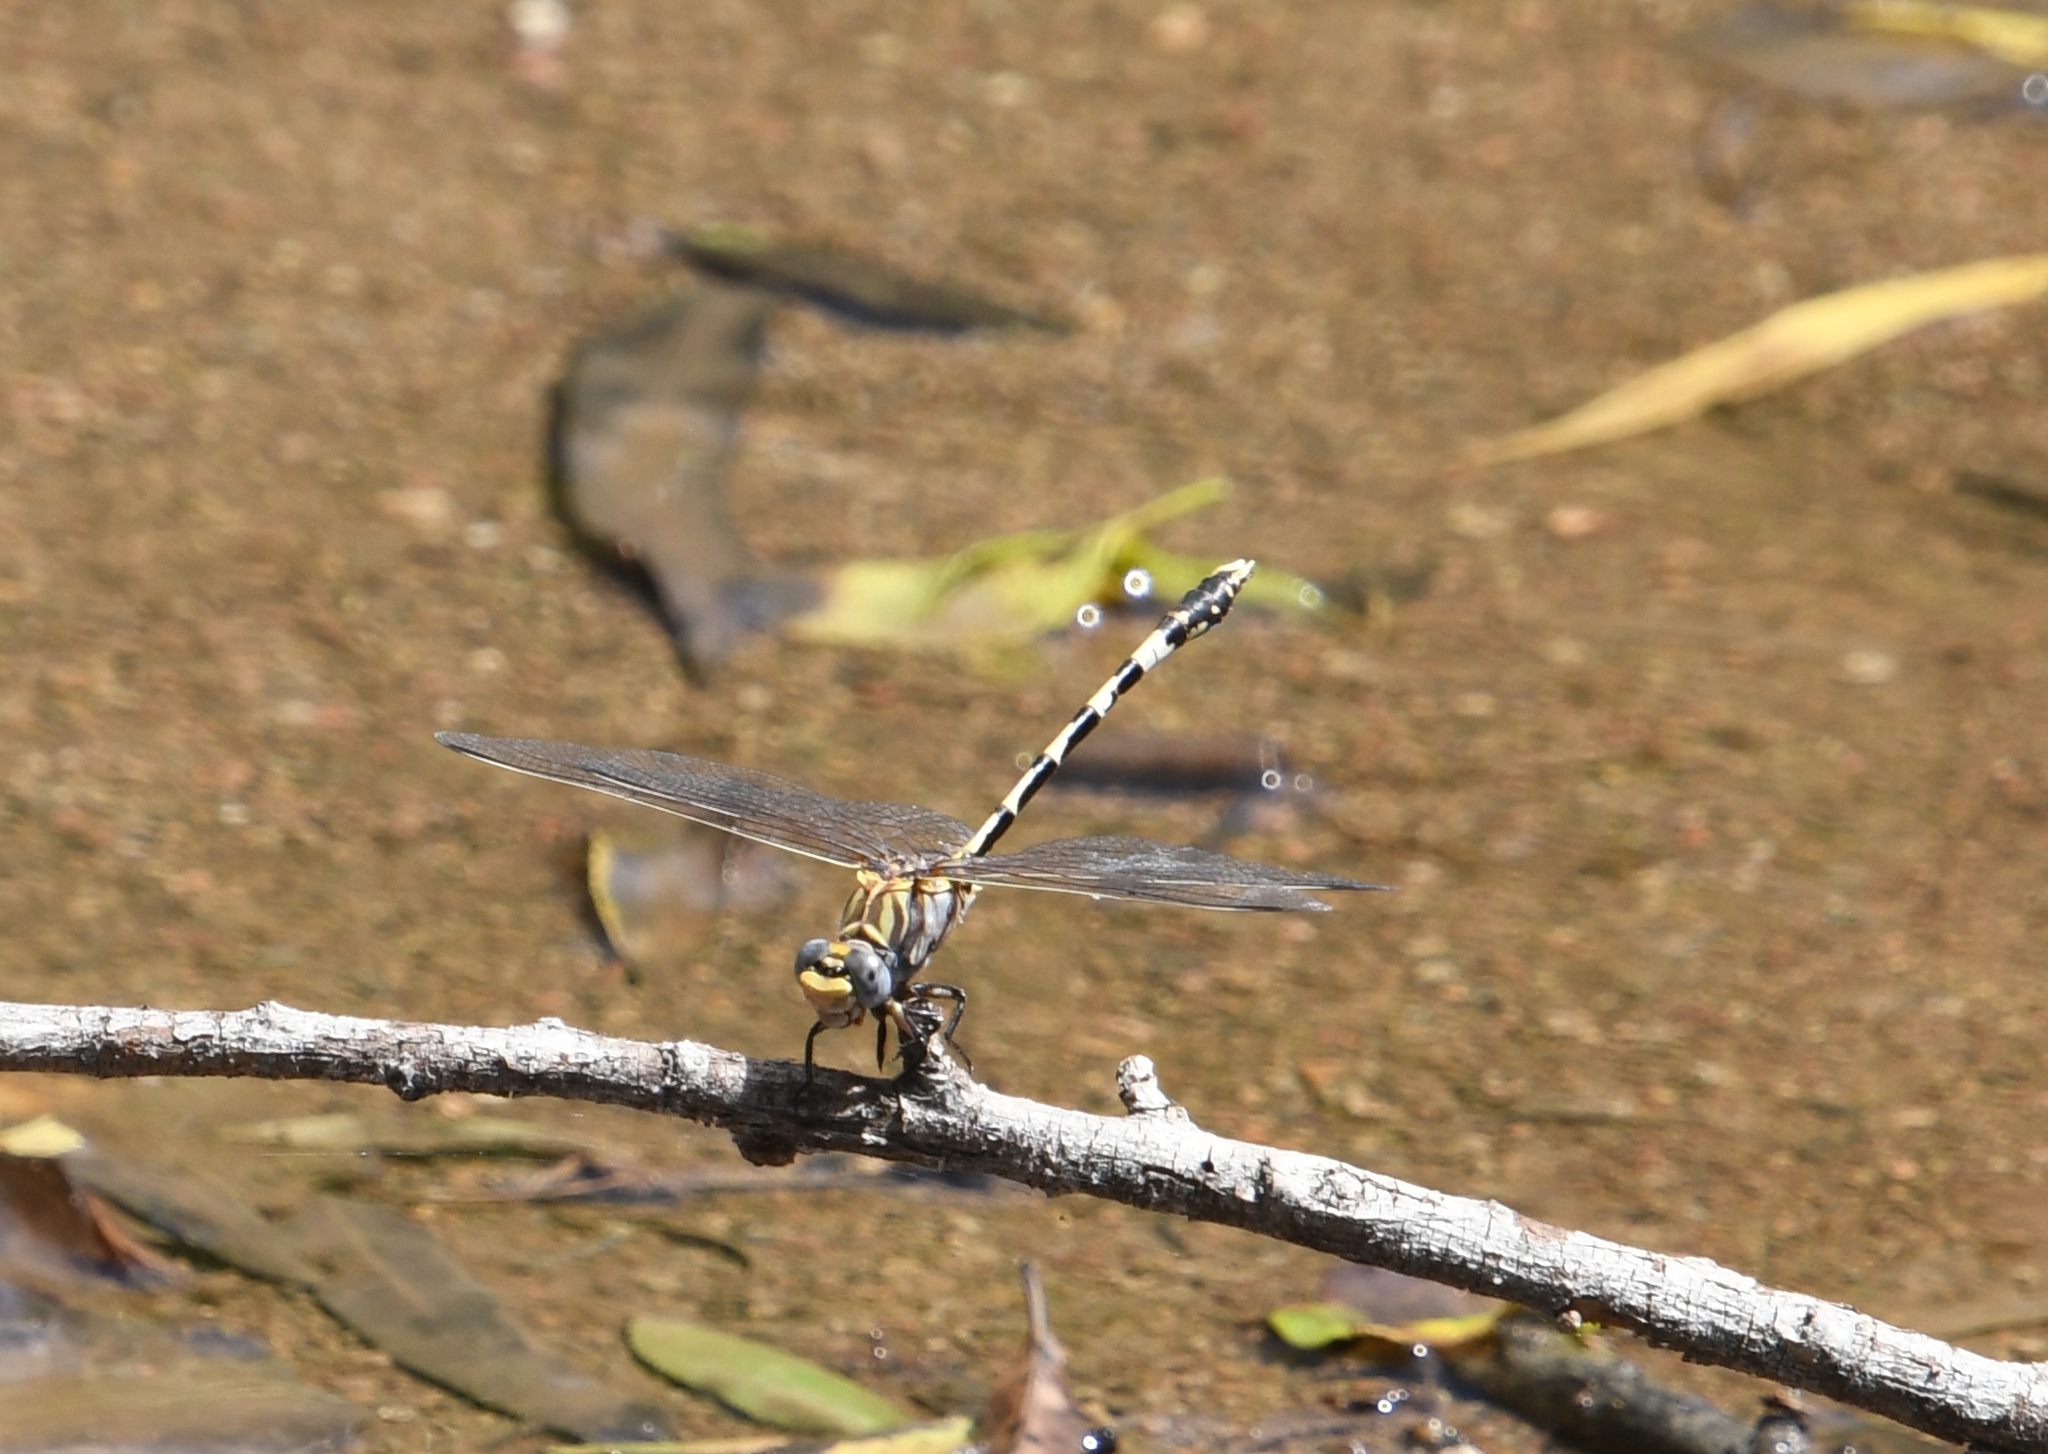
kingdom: Animalia
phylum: Arthropoda
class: Insecta
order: Odonata
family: Gomphidae
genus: Progomphus
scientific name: Progomphus borealis
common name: Gray sanddragon
